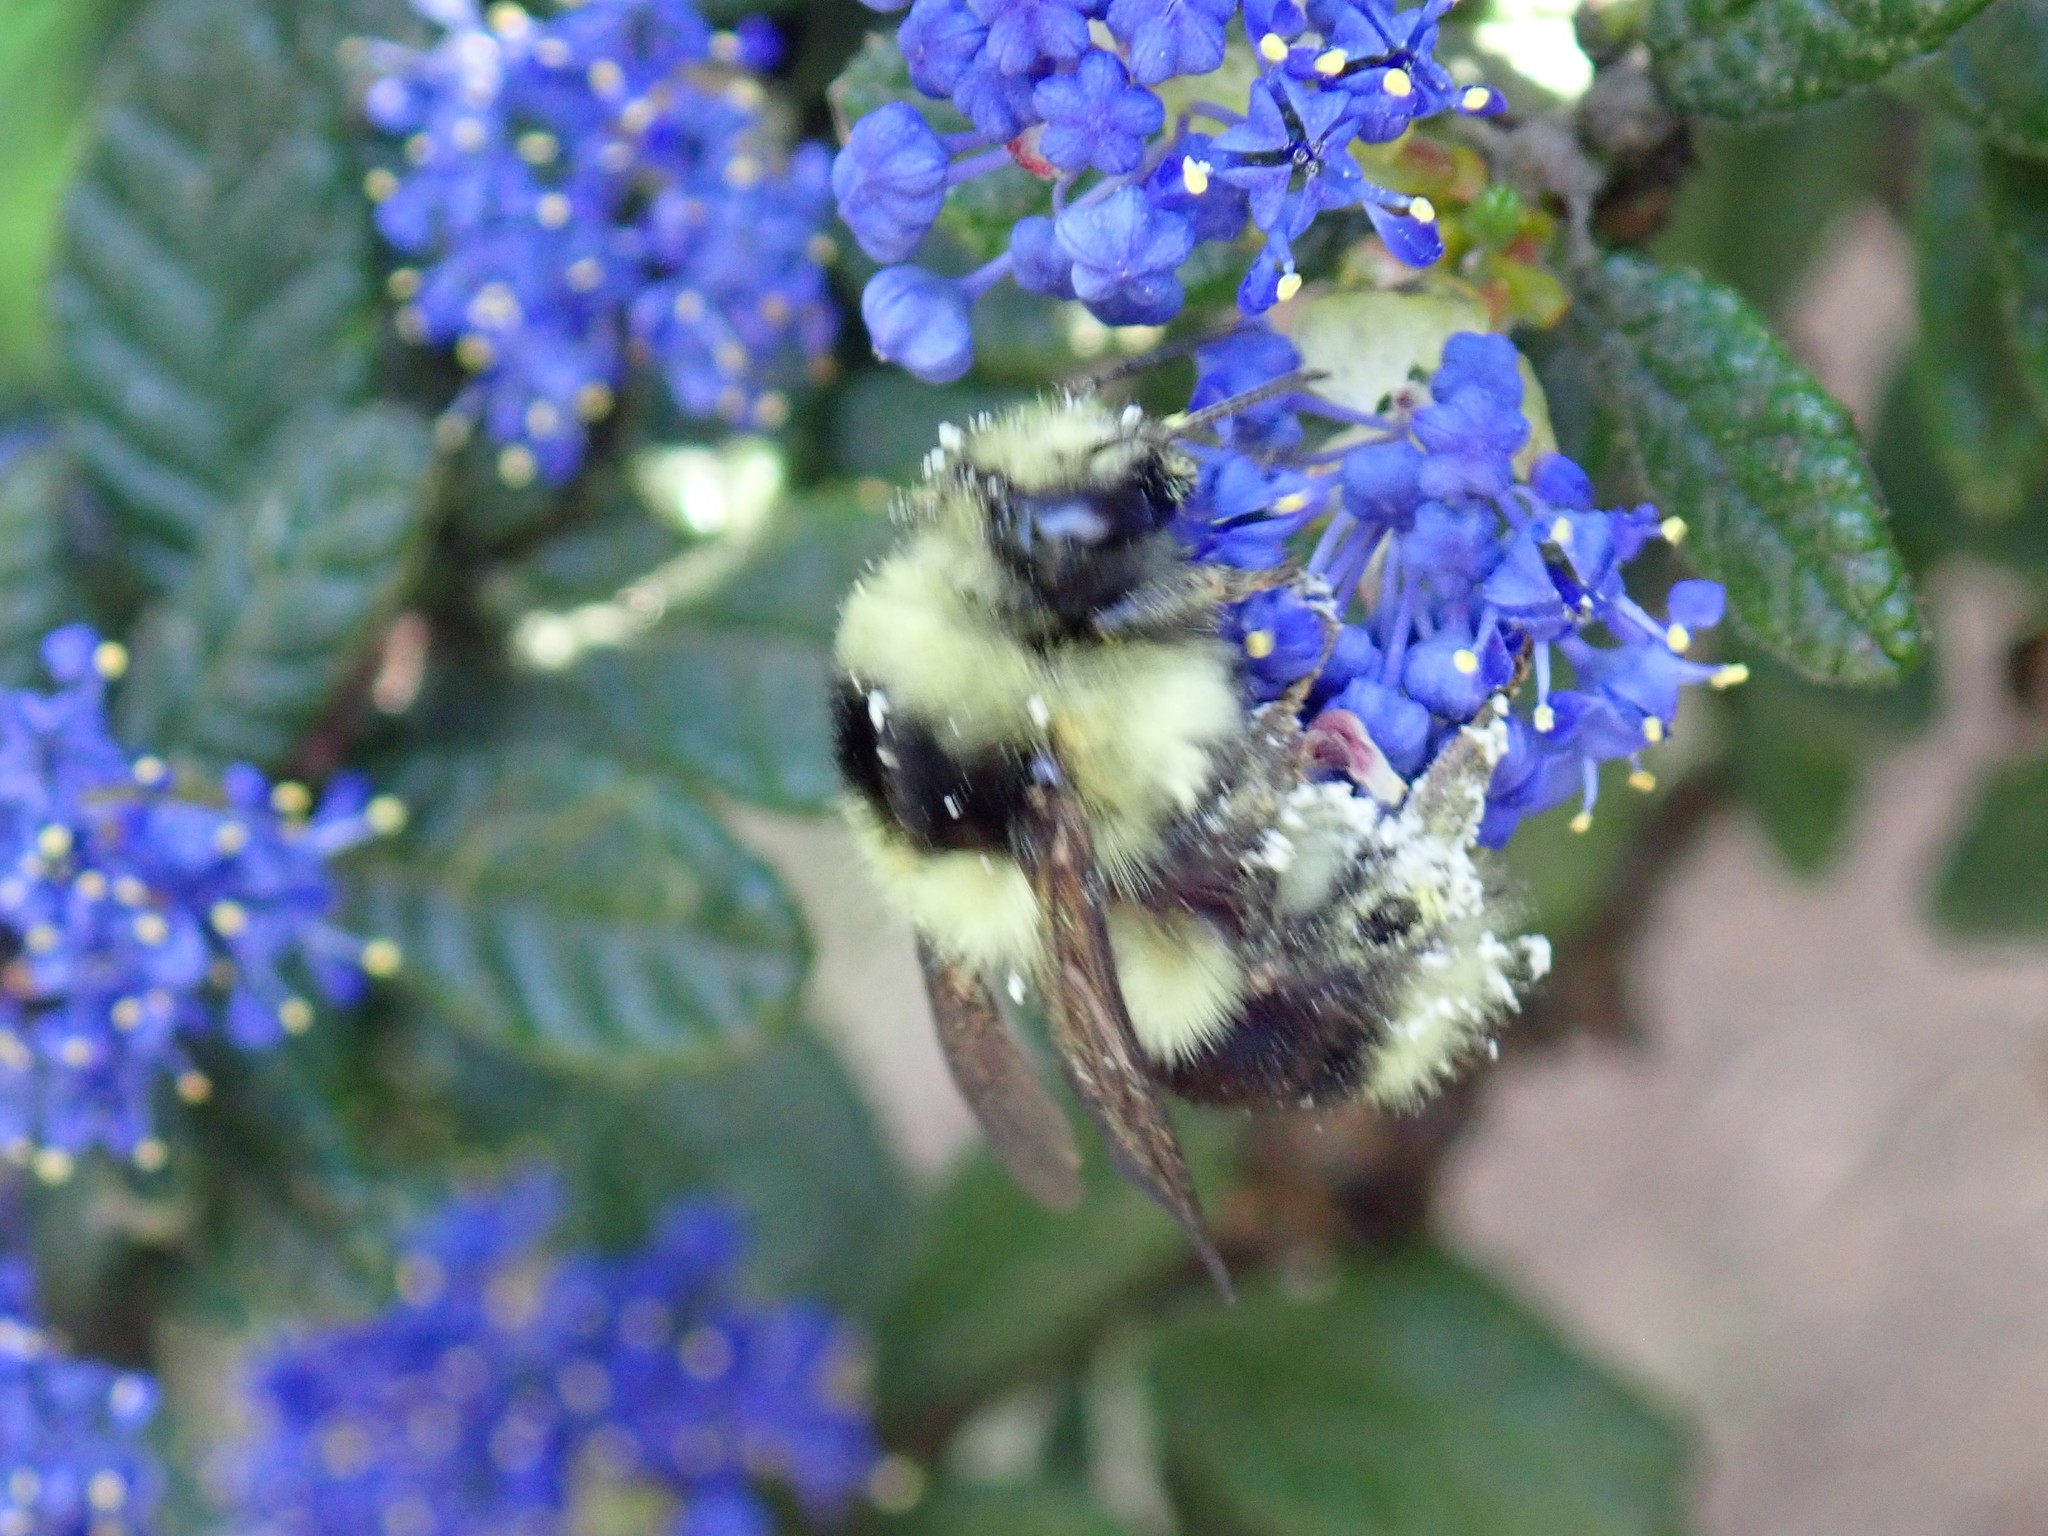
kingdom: Animalia
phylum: Arthropoda
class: Insecta
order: Hymenoptera
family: Apidae
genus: Bombus
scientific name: Bombus melanopygus
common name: Black tail bumble bee
